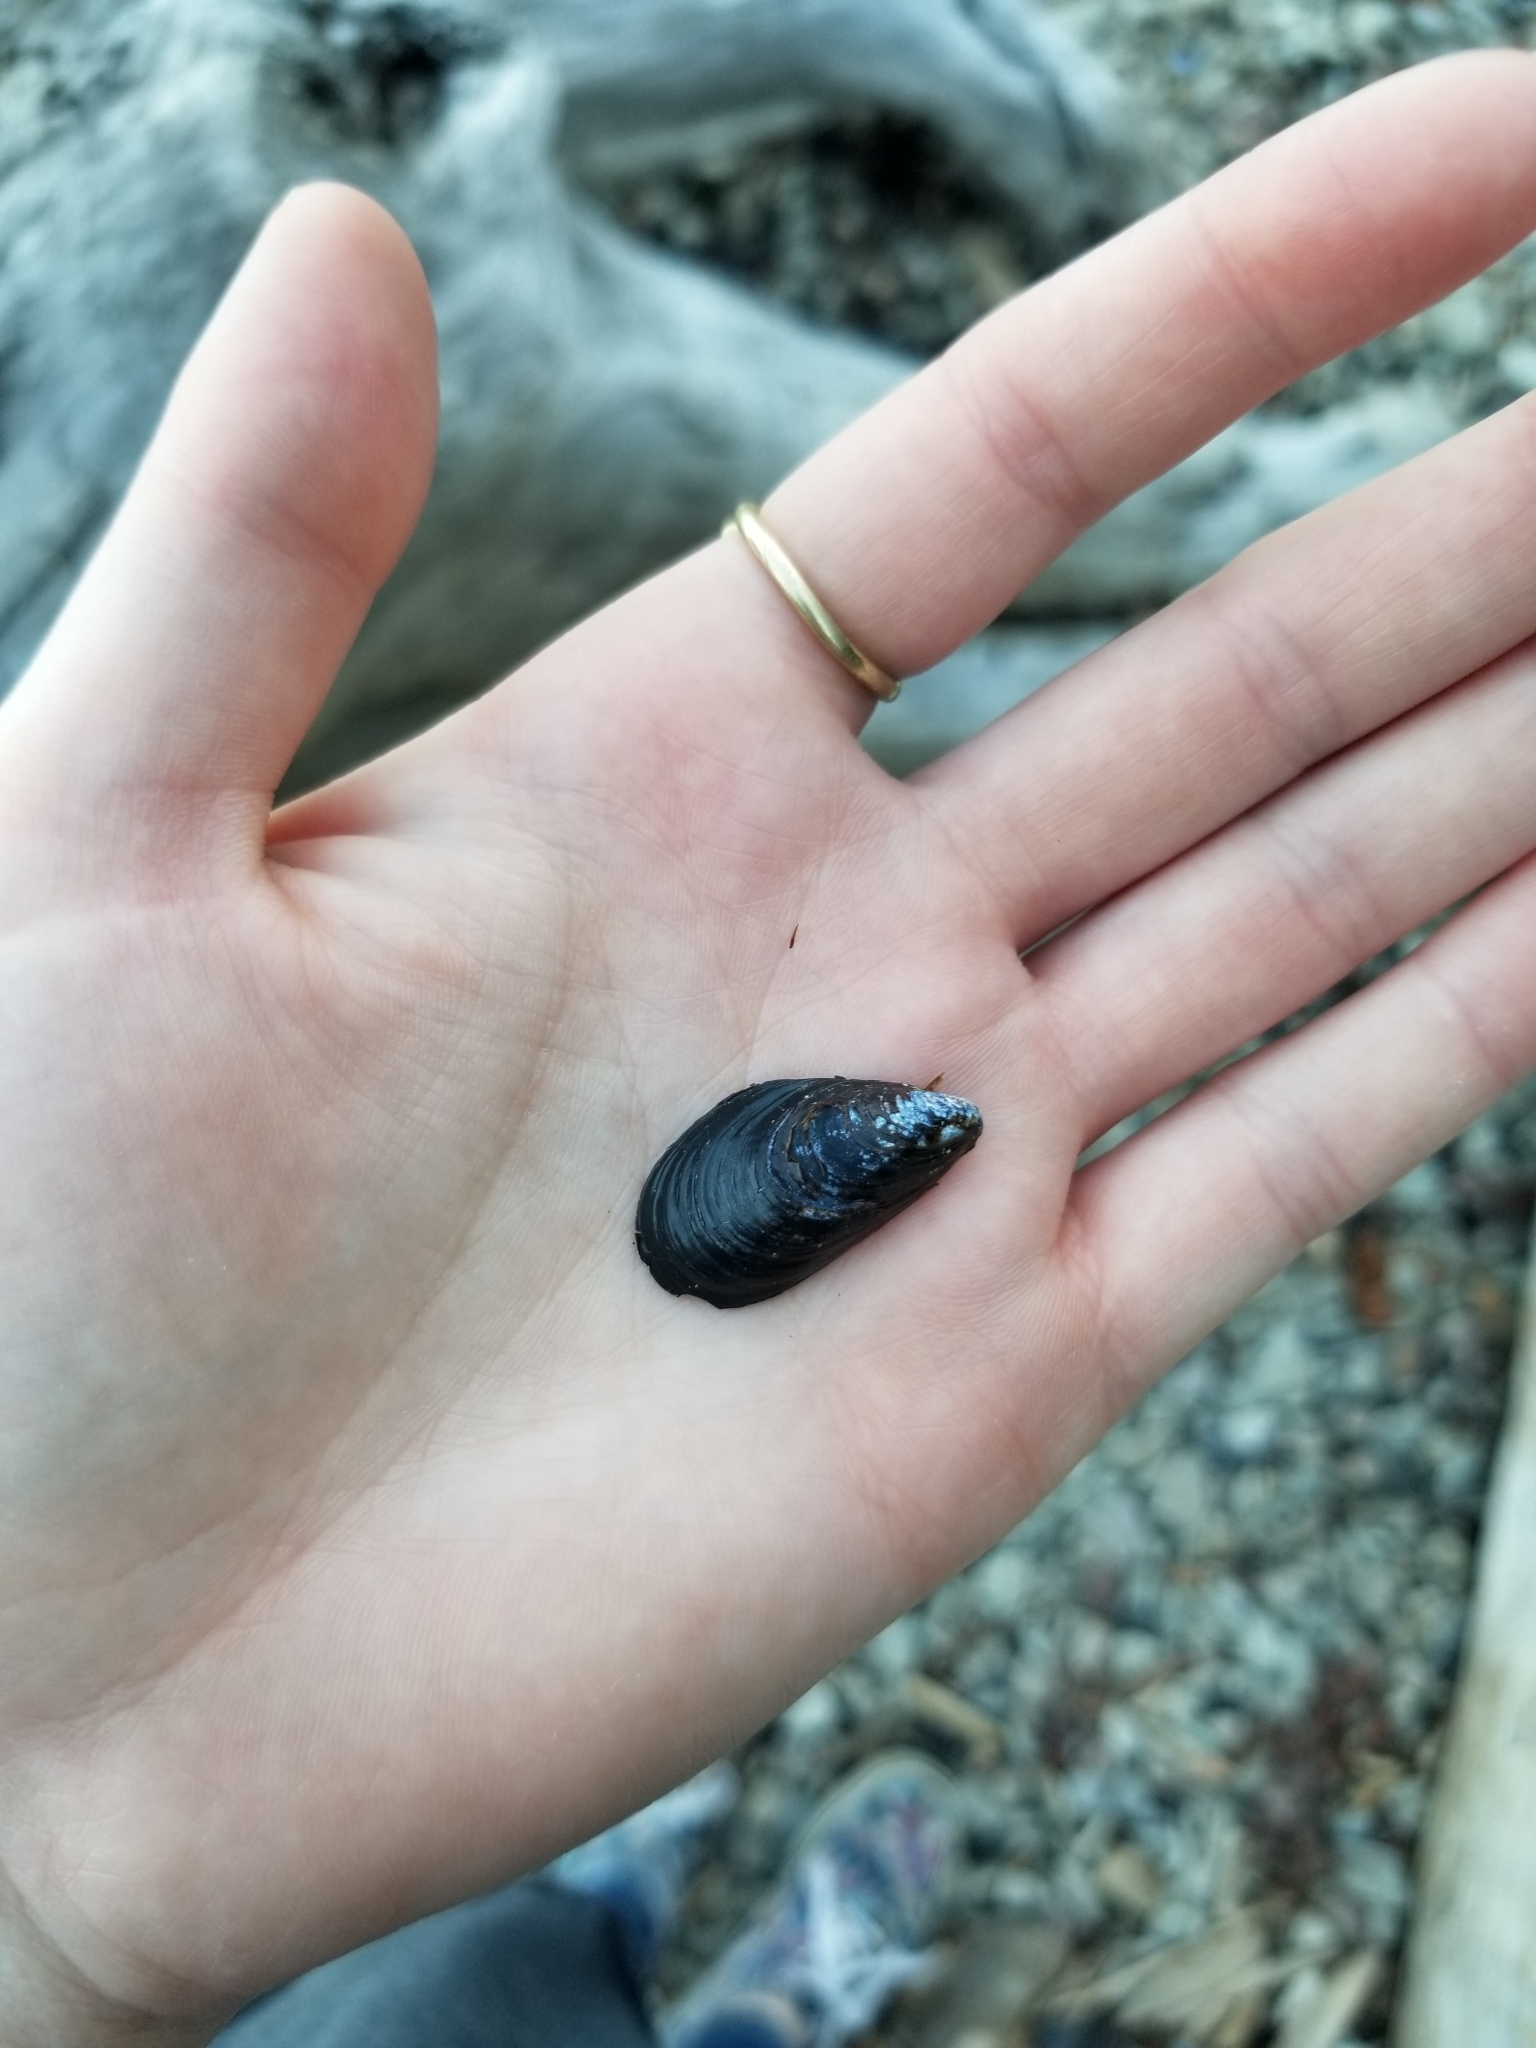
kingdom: Animalia
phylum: Mollusca
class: Bivalvia
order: Mytilida
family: Mytilidae
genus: Mytilus
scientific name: Mytilus
